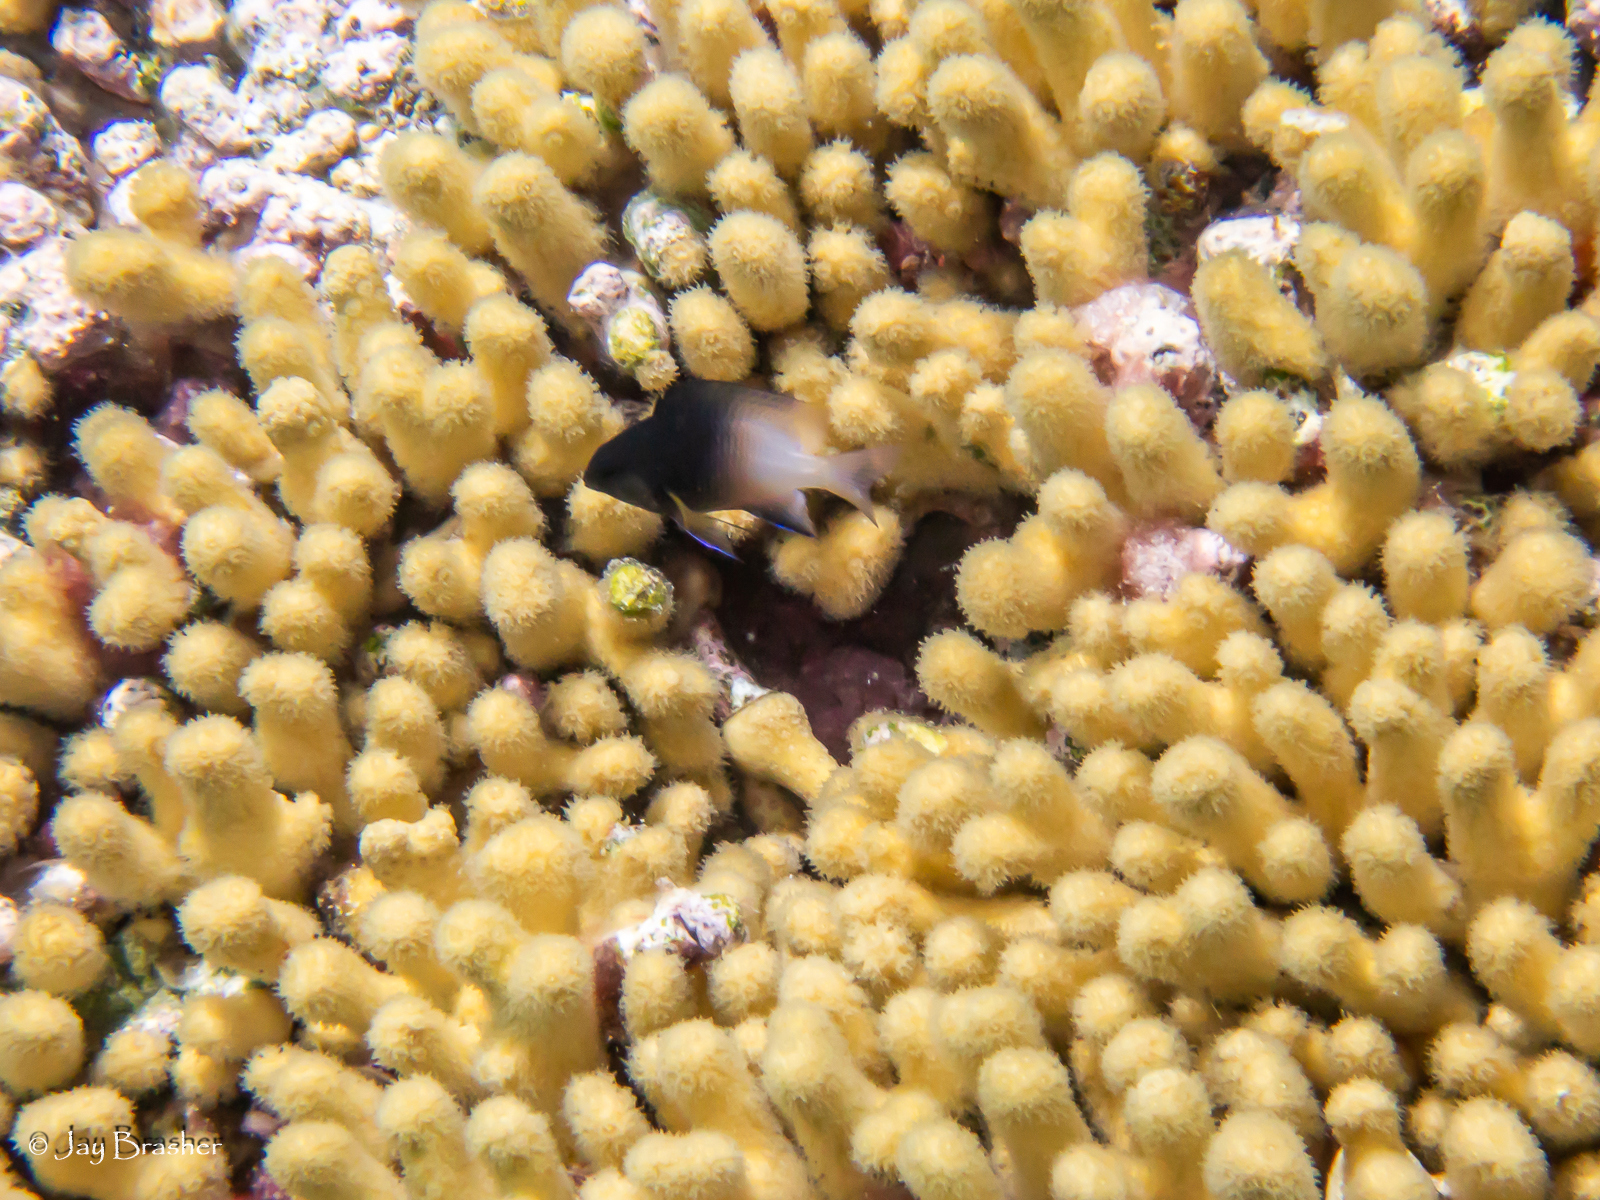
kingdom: Animalia
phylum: Cnidaria
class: Anthozoa
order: Scleractinia
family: Pocilloporidae
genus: Madracis
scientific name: Madracis auretenra
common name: Yellow pencil coral
